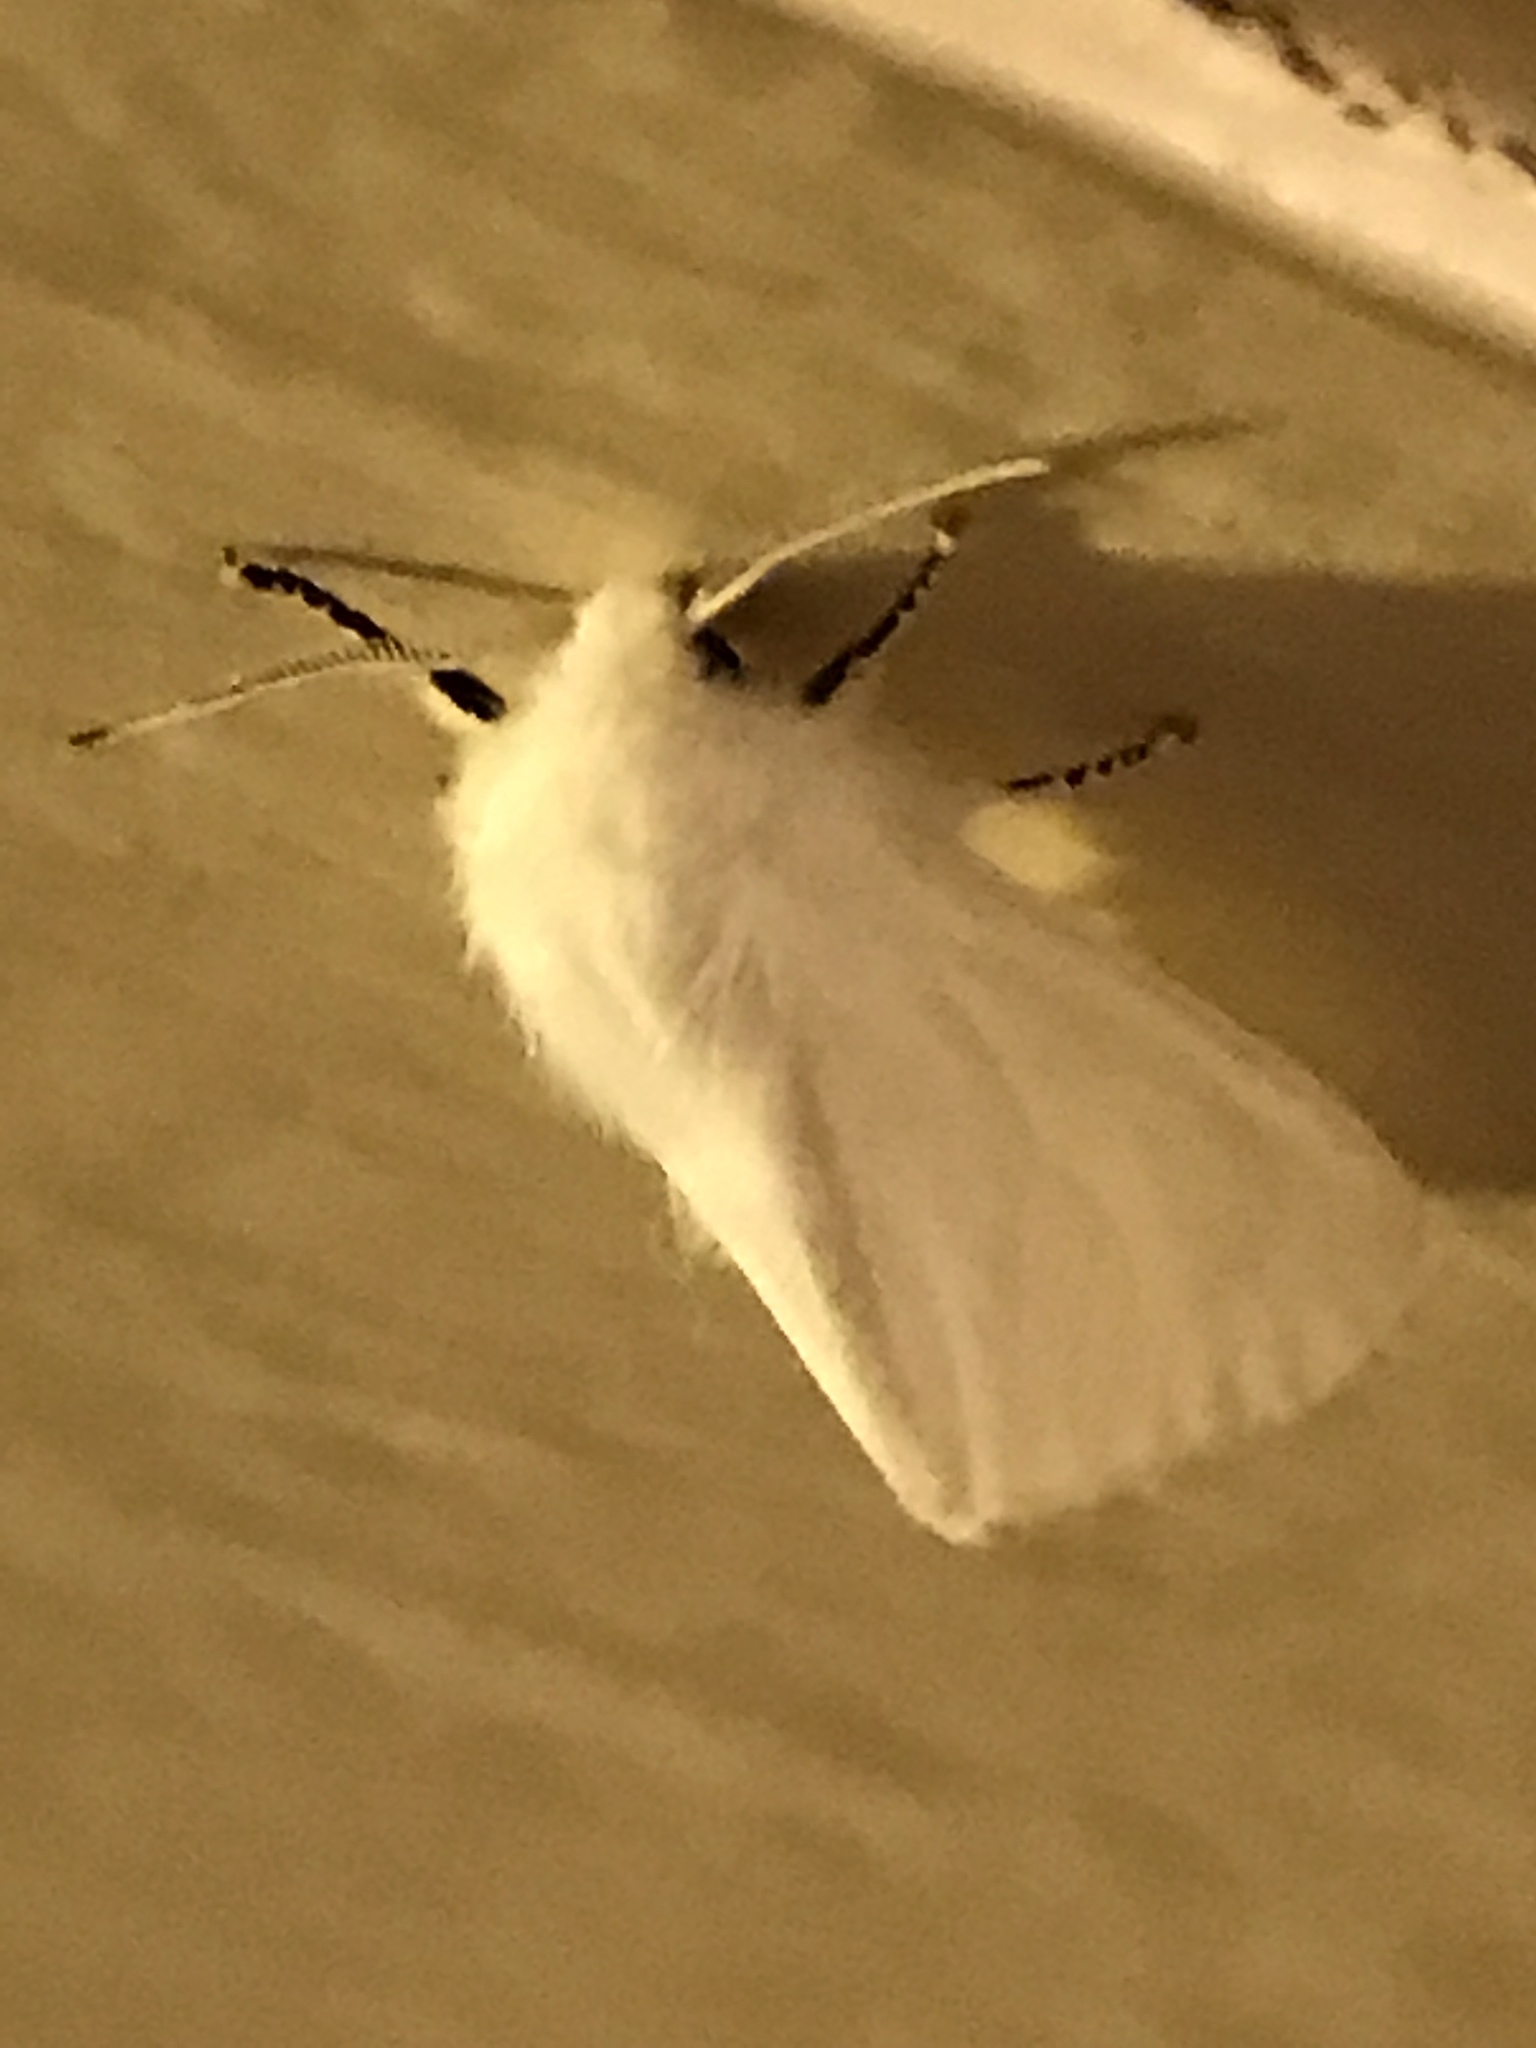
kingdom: Animalia
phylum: Arthropoda
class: Insecta
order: Lepidoptera
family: Erebidae
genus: Hyphantria
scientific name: Hyphantria cunea
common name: American white moth
